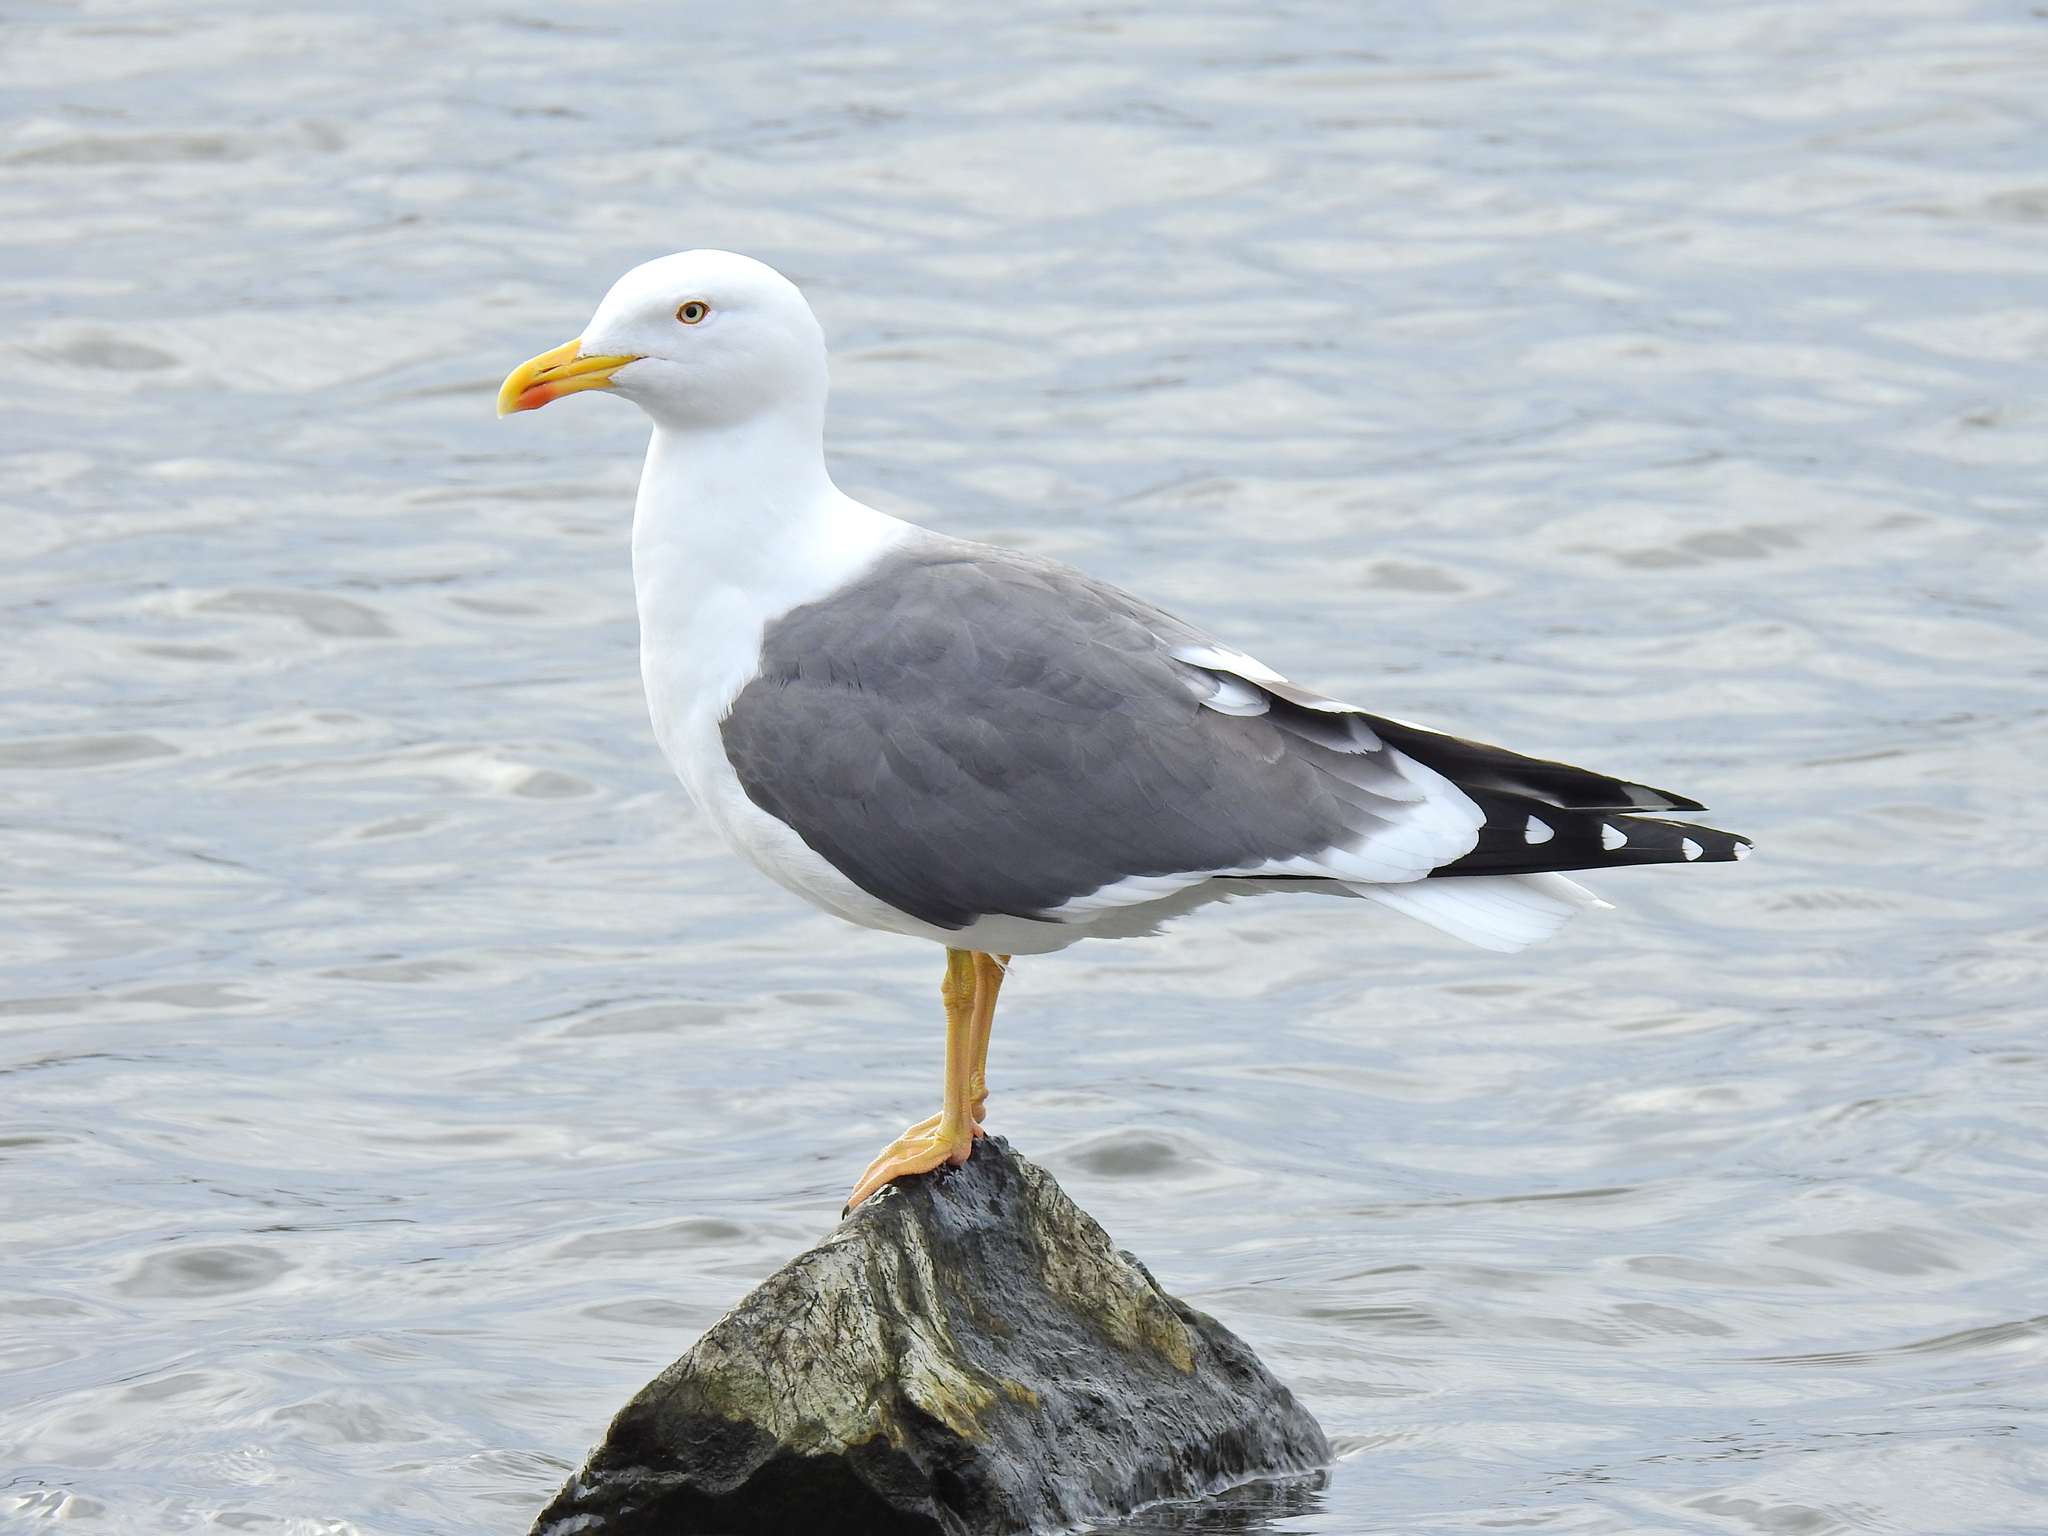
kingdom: Animalia
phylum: Chordata
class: Aves
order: Charadriiformes
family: Laridae
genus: Larus
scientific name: Larus fuscus
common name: Lesser black-backed gull
